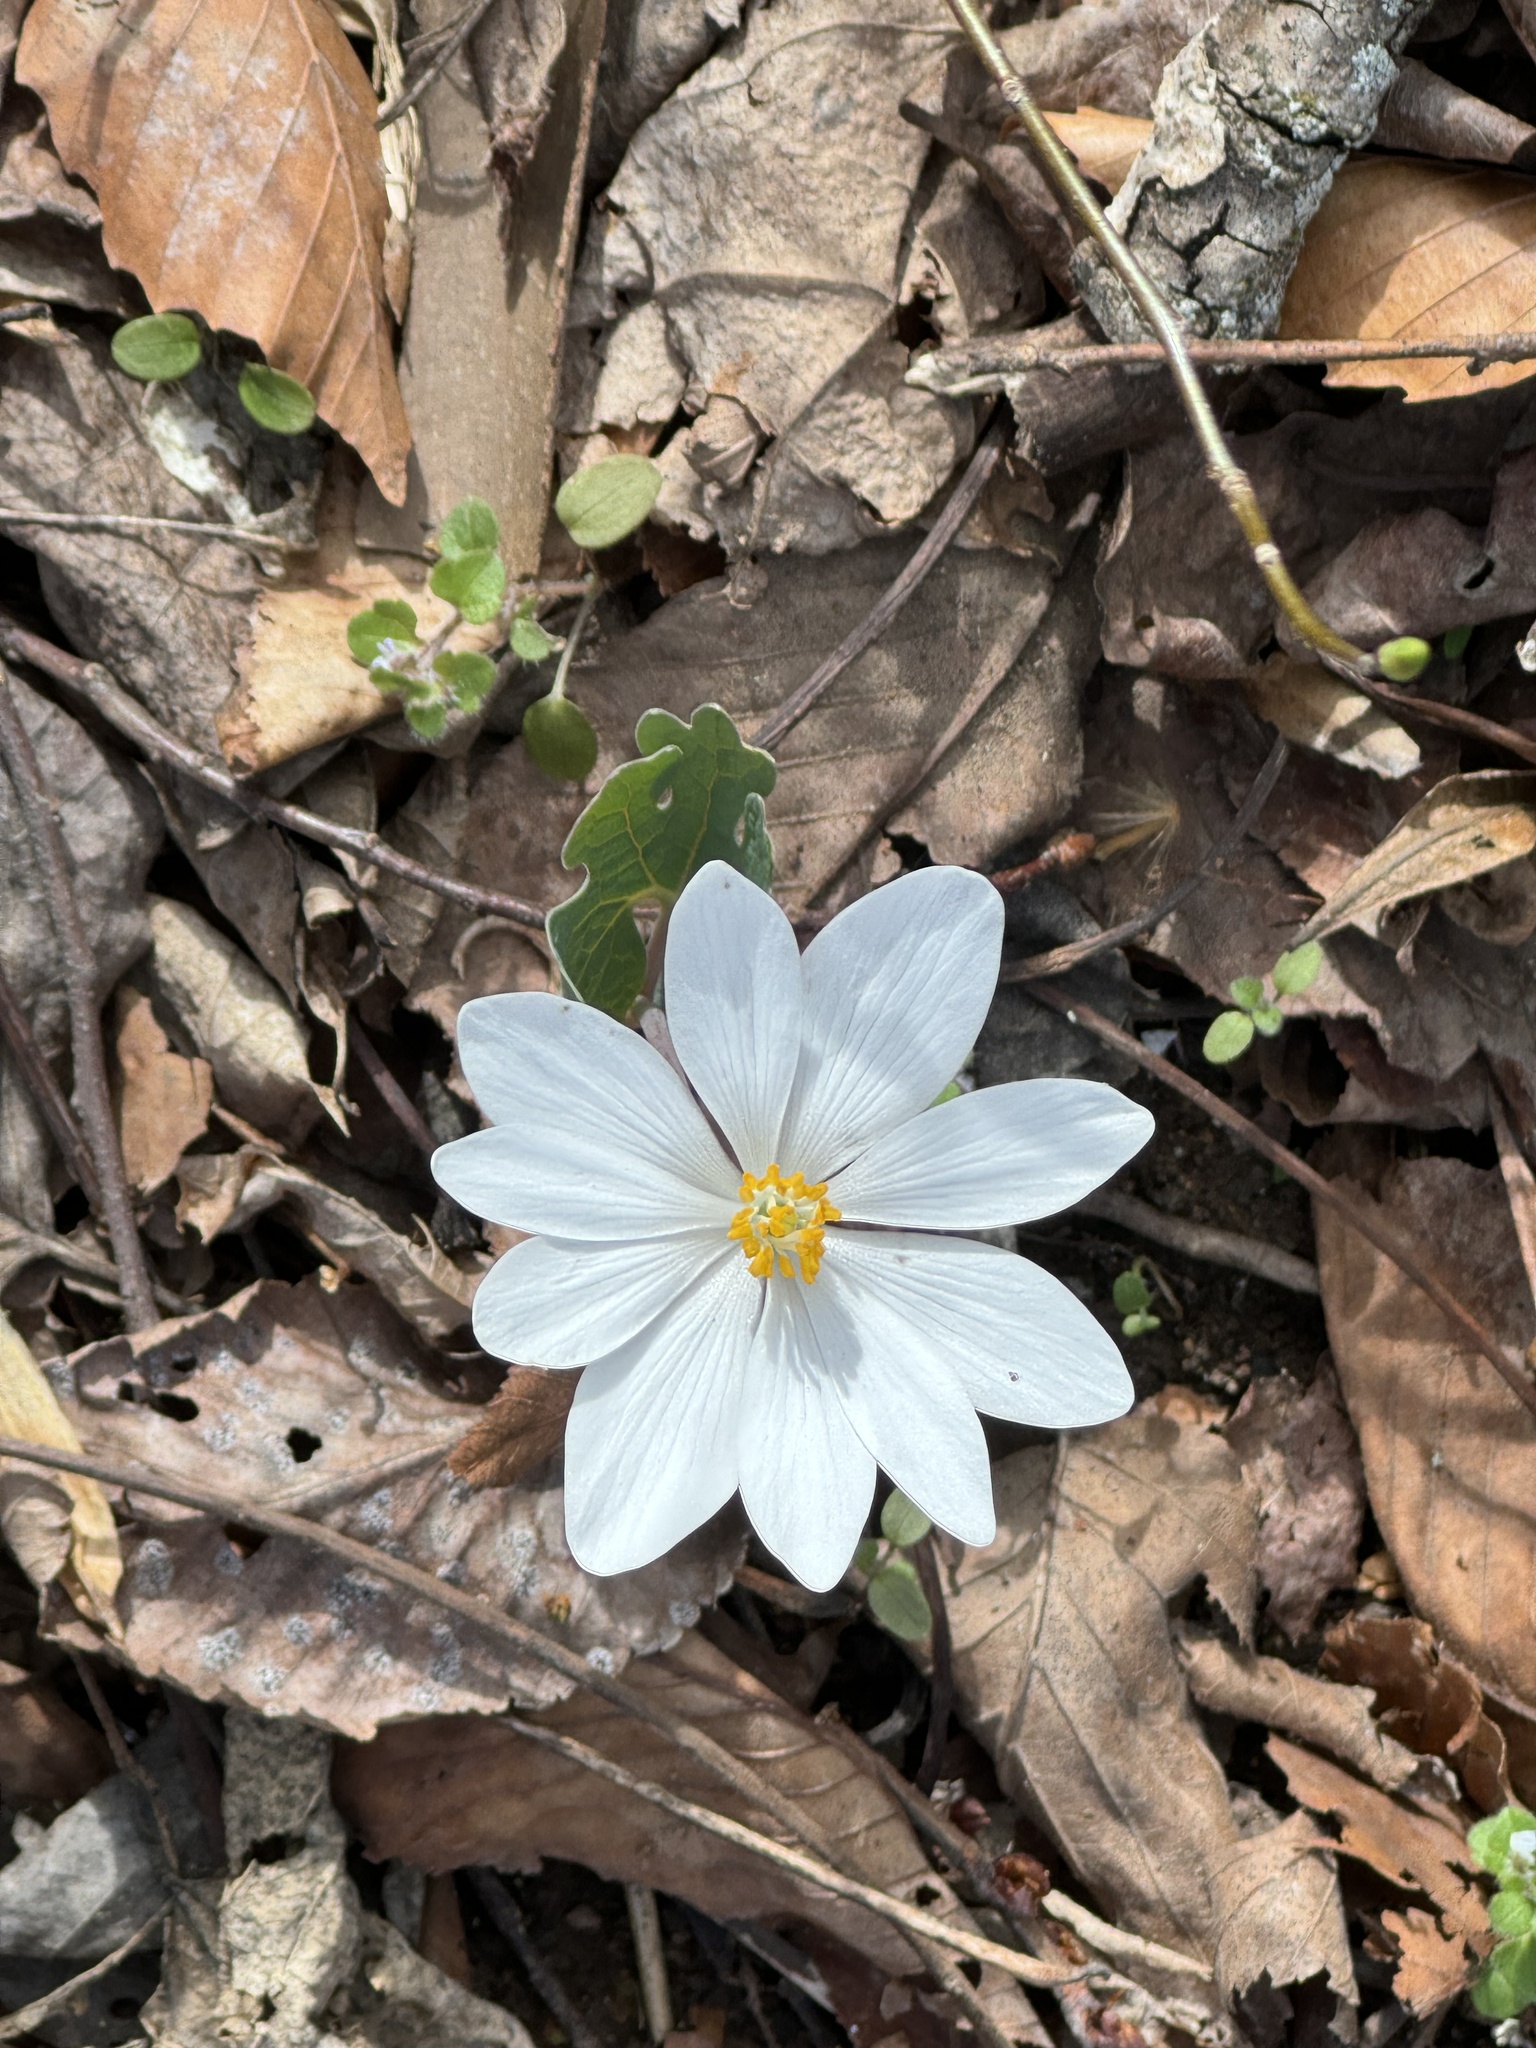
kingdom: Plantae
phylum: Tracheophyta
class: Magnoliopsida
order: Ranunculales
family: Papaveraceae
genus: Sanguinaria
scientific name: Sanguinaria canadensis
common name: Bloodroot
